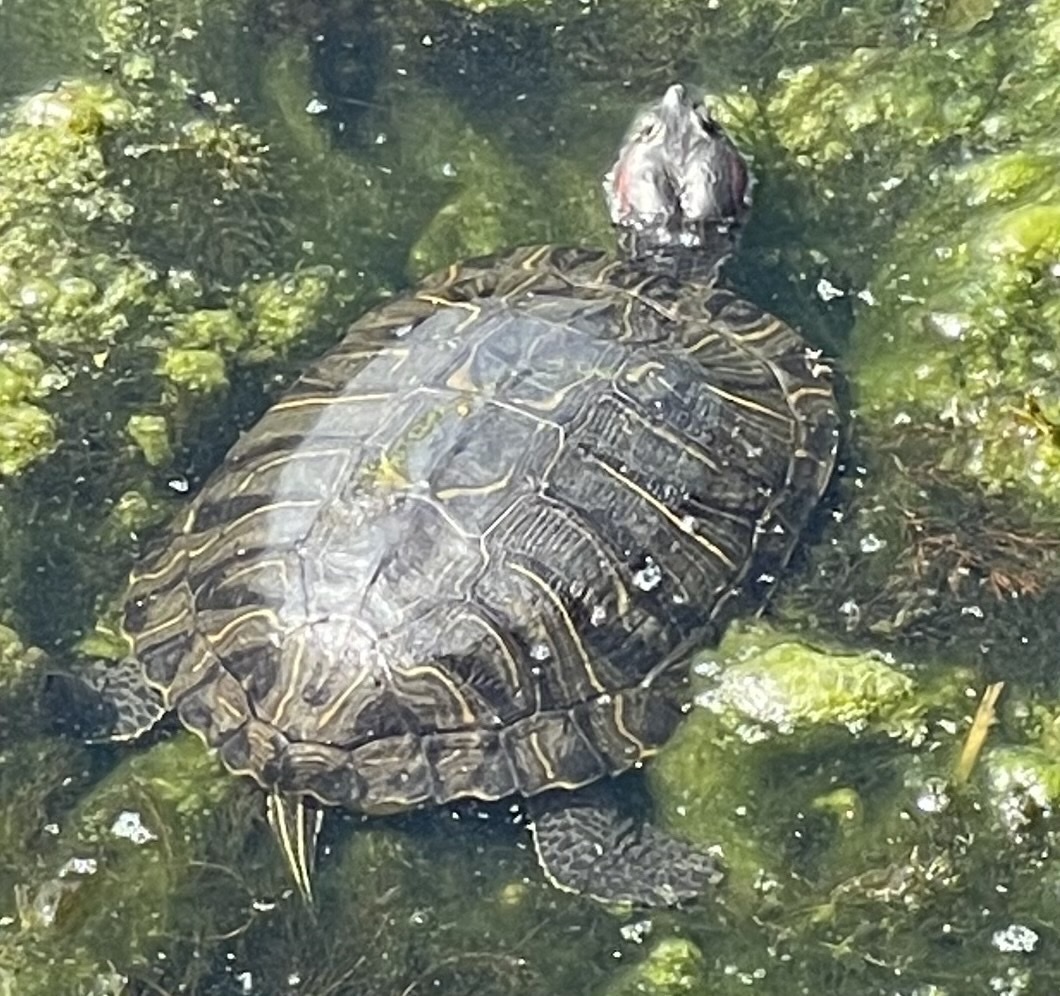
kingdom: Animalia
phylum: Chordata
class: Testudines
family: Emydidae
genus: Trachemys
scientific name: Trachemys scripta
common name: Slider
